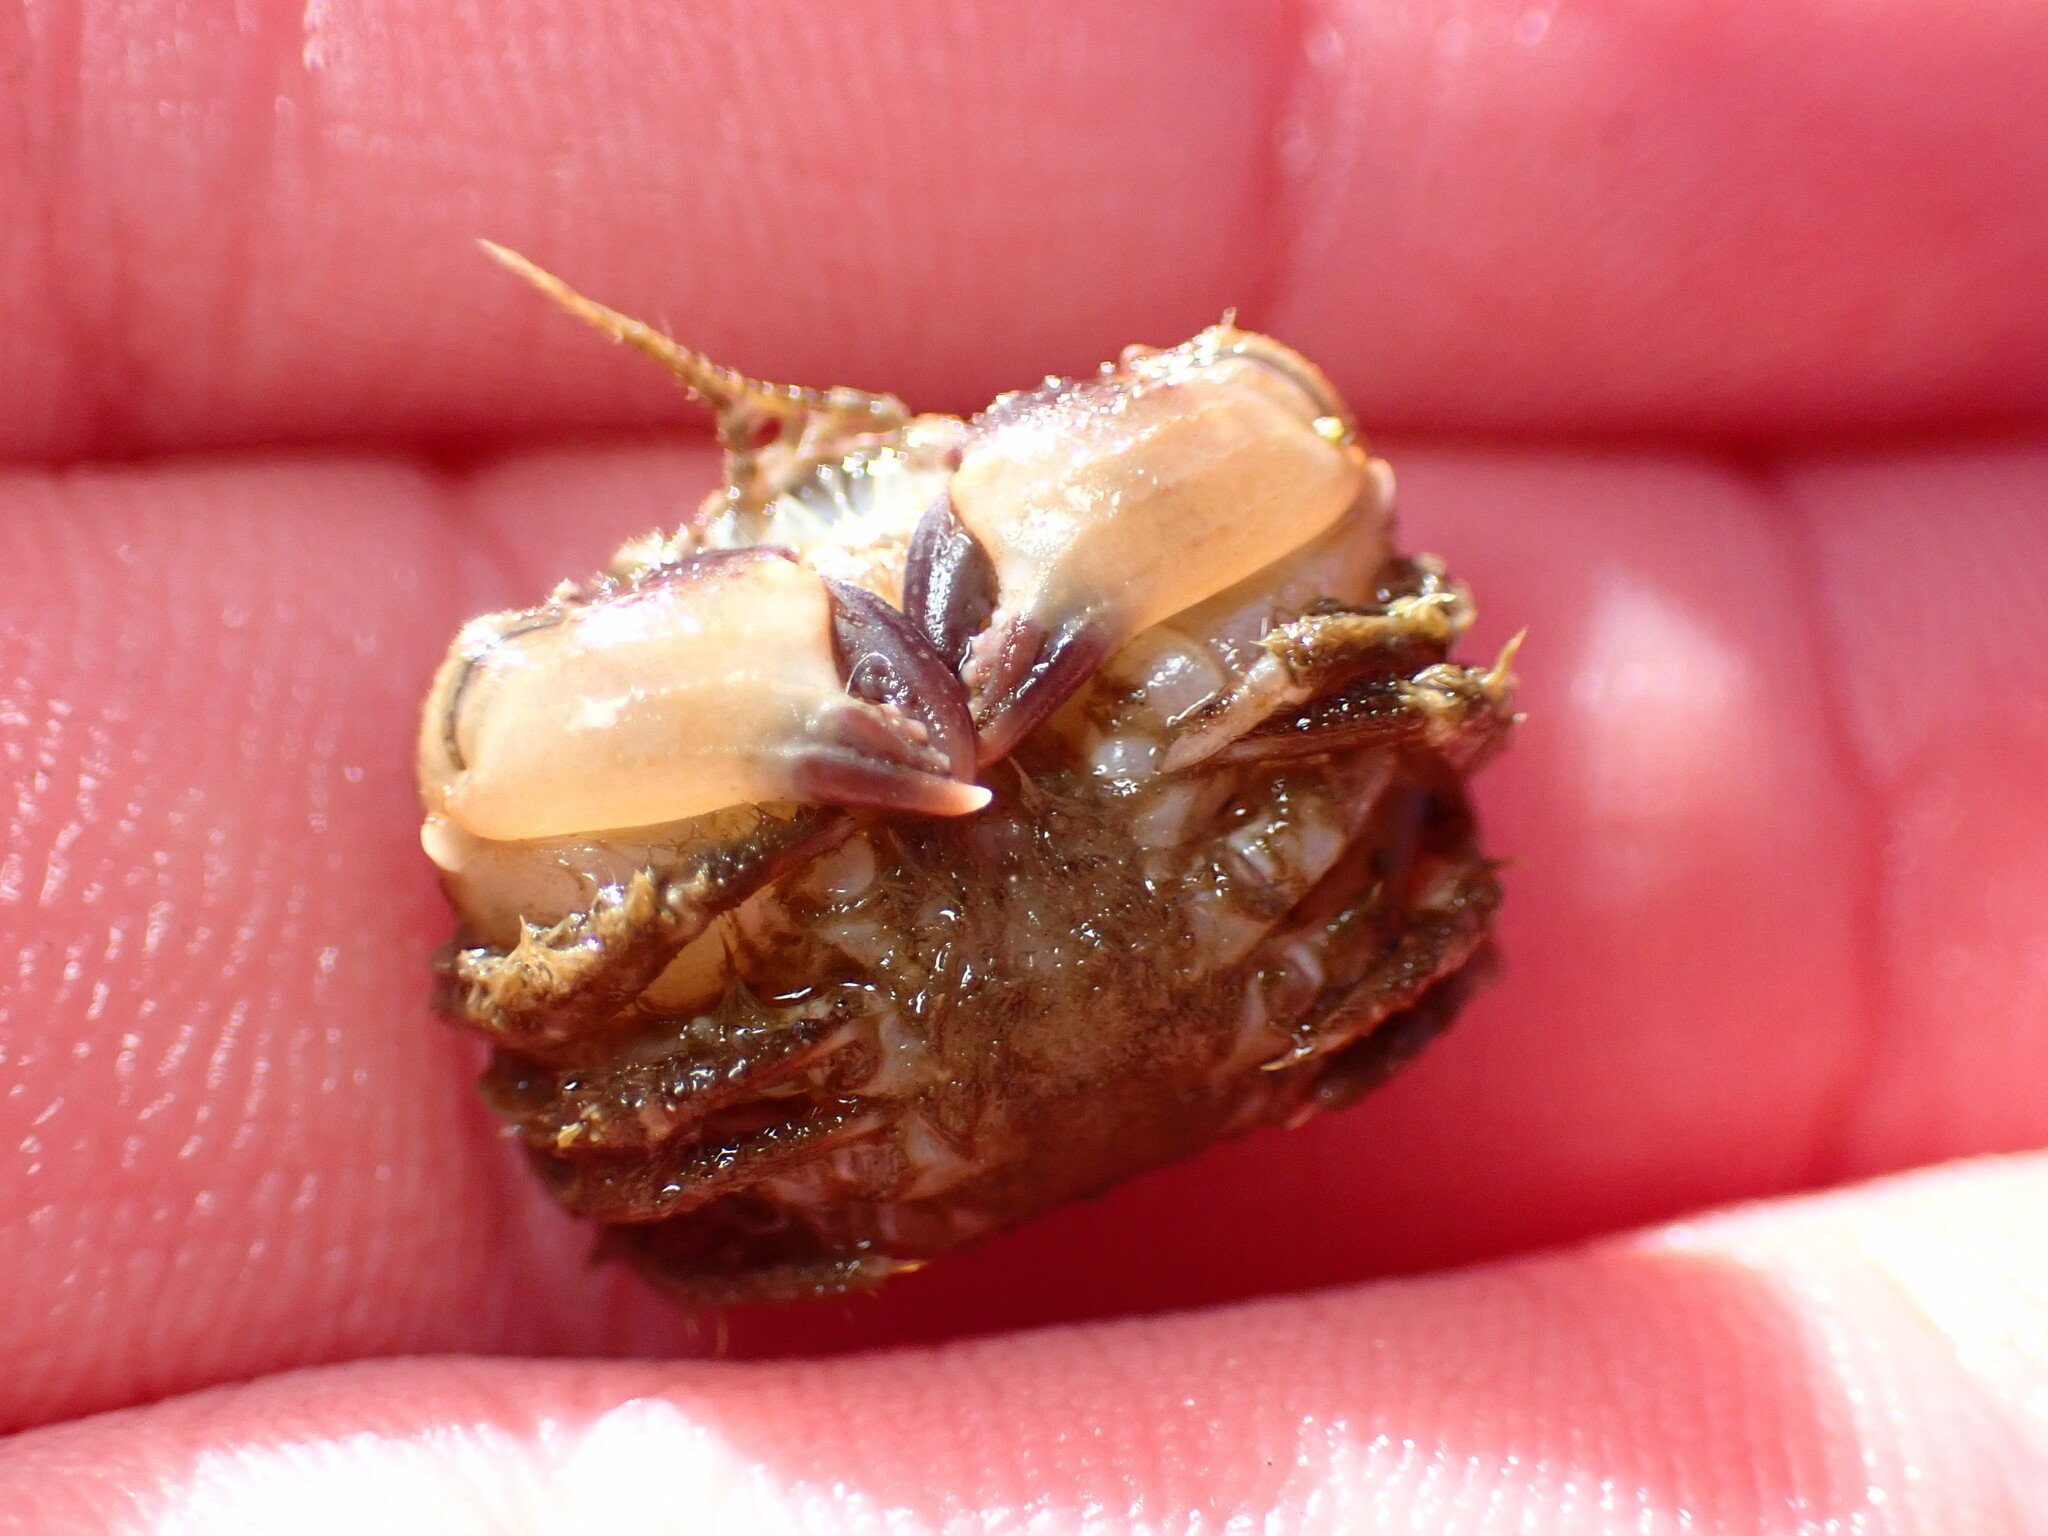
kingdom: Animalia
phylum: Arthropoda
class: Malacostraca
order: Decapoda
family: Cancridae
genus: Glebocarcinus
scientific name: Glebocarcinus oregonensis
